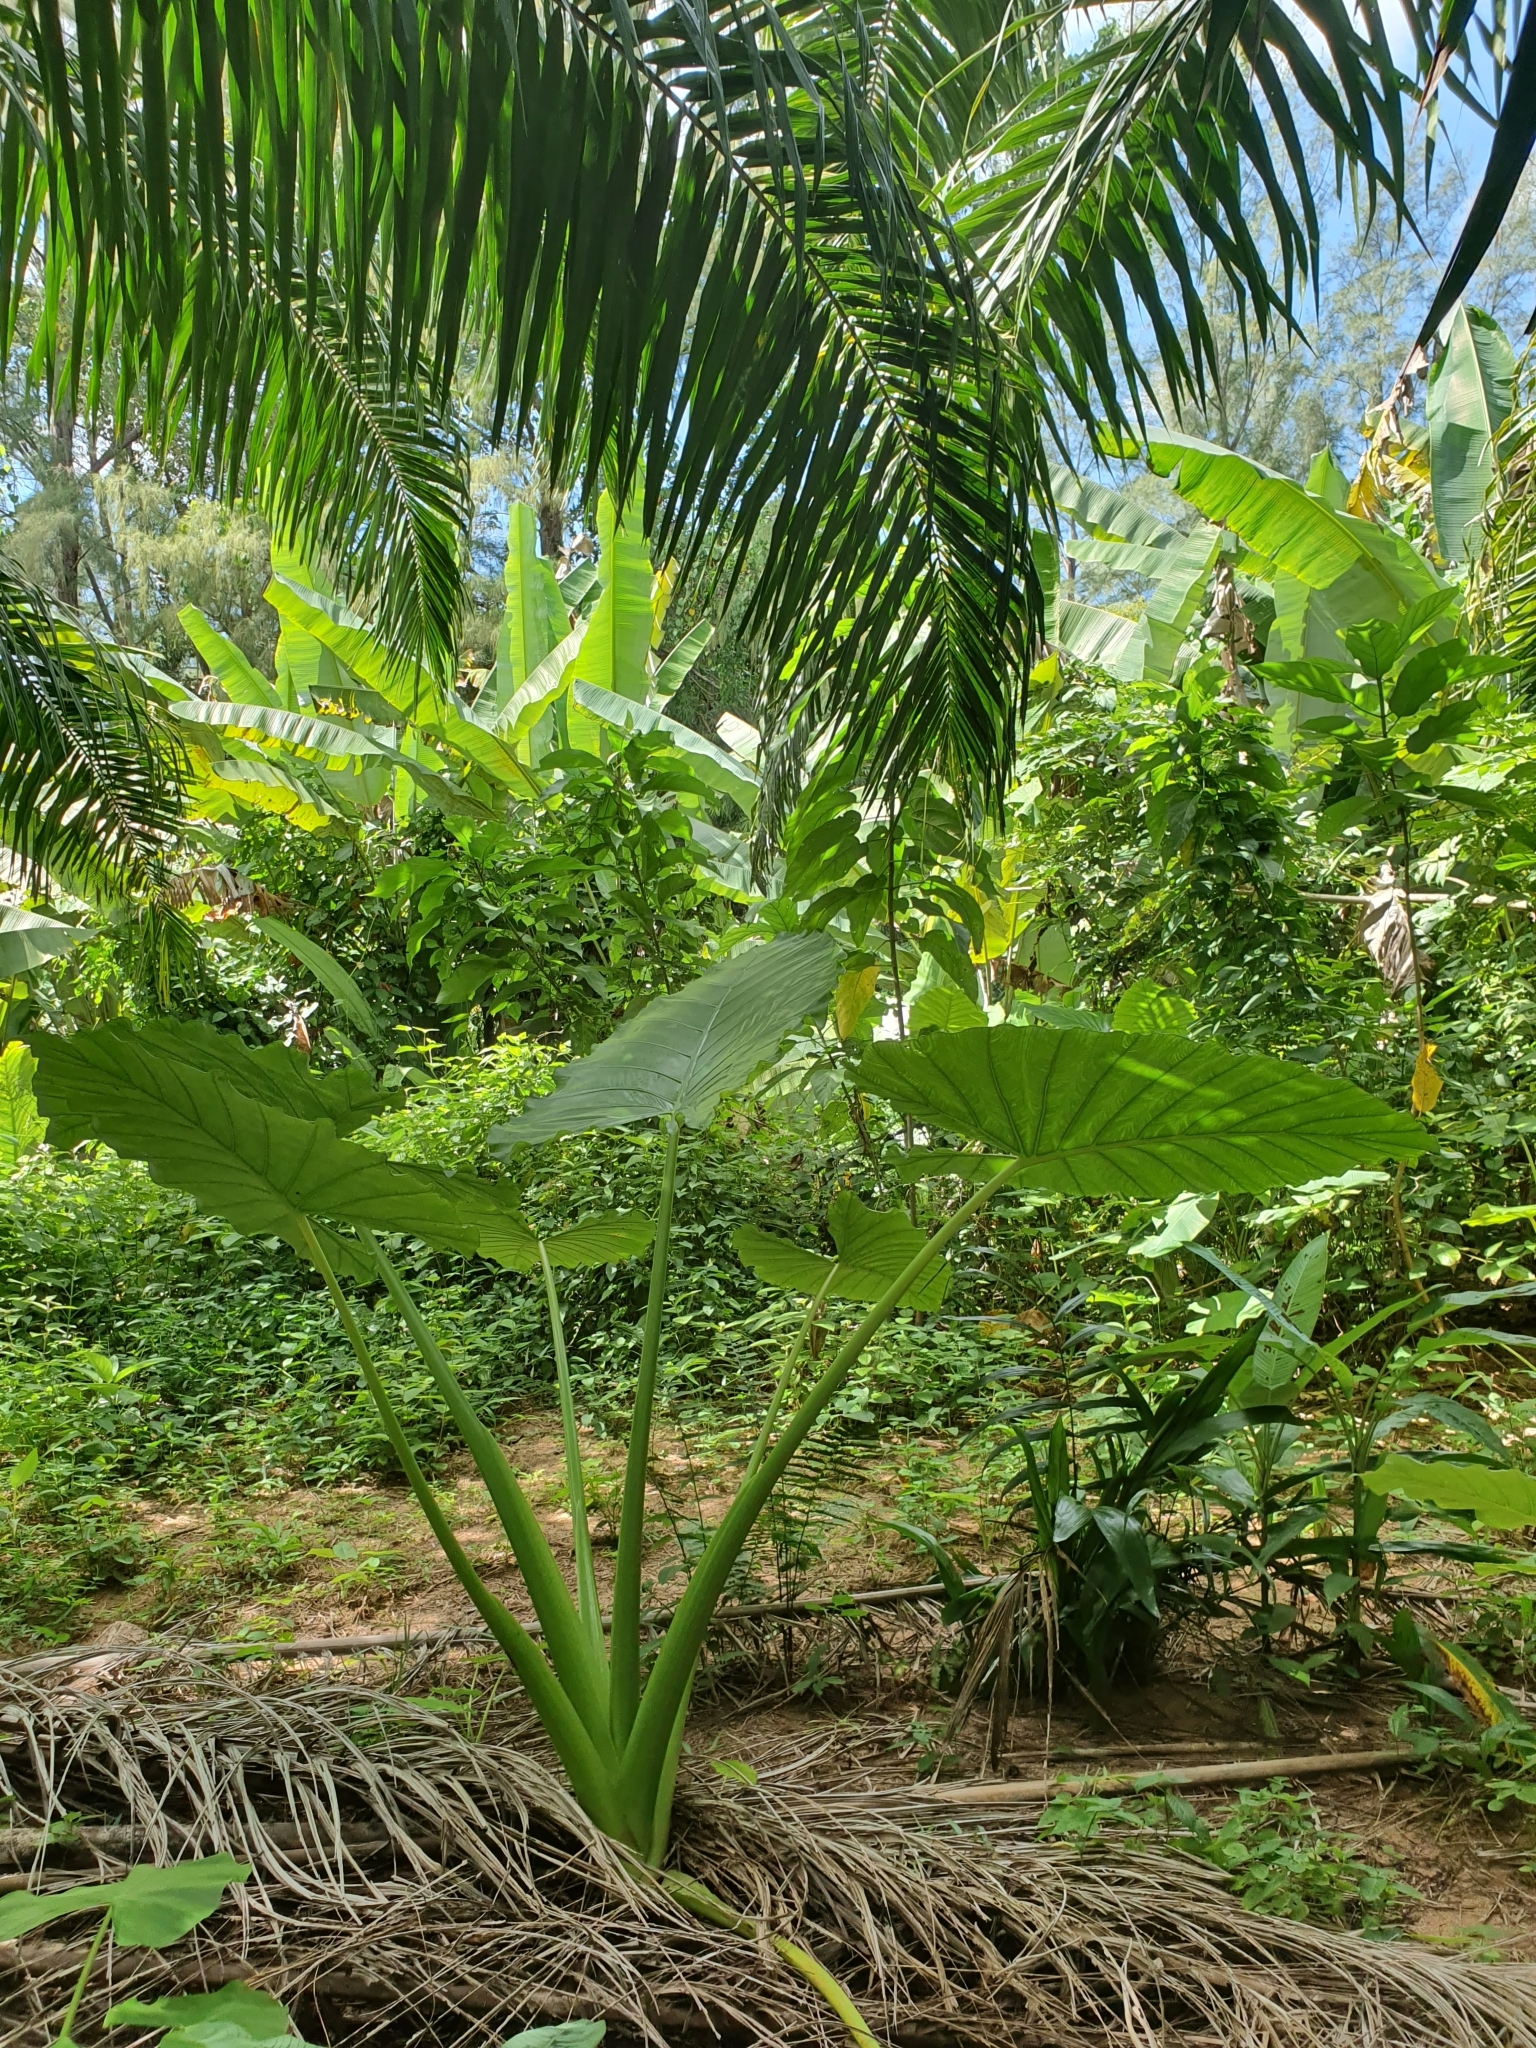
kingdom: Plantae
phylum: Tracheophyta
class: Liliopsida
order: Alismatales
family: Araceae
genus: Alocasia
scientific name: Alocasia macrorrhizos
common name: Giant taro
